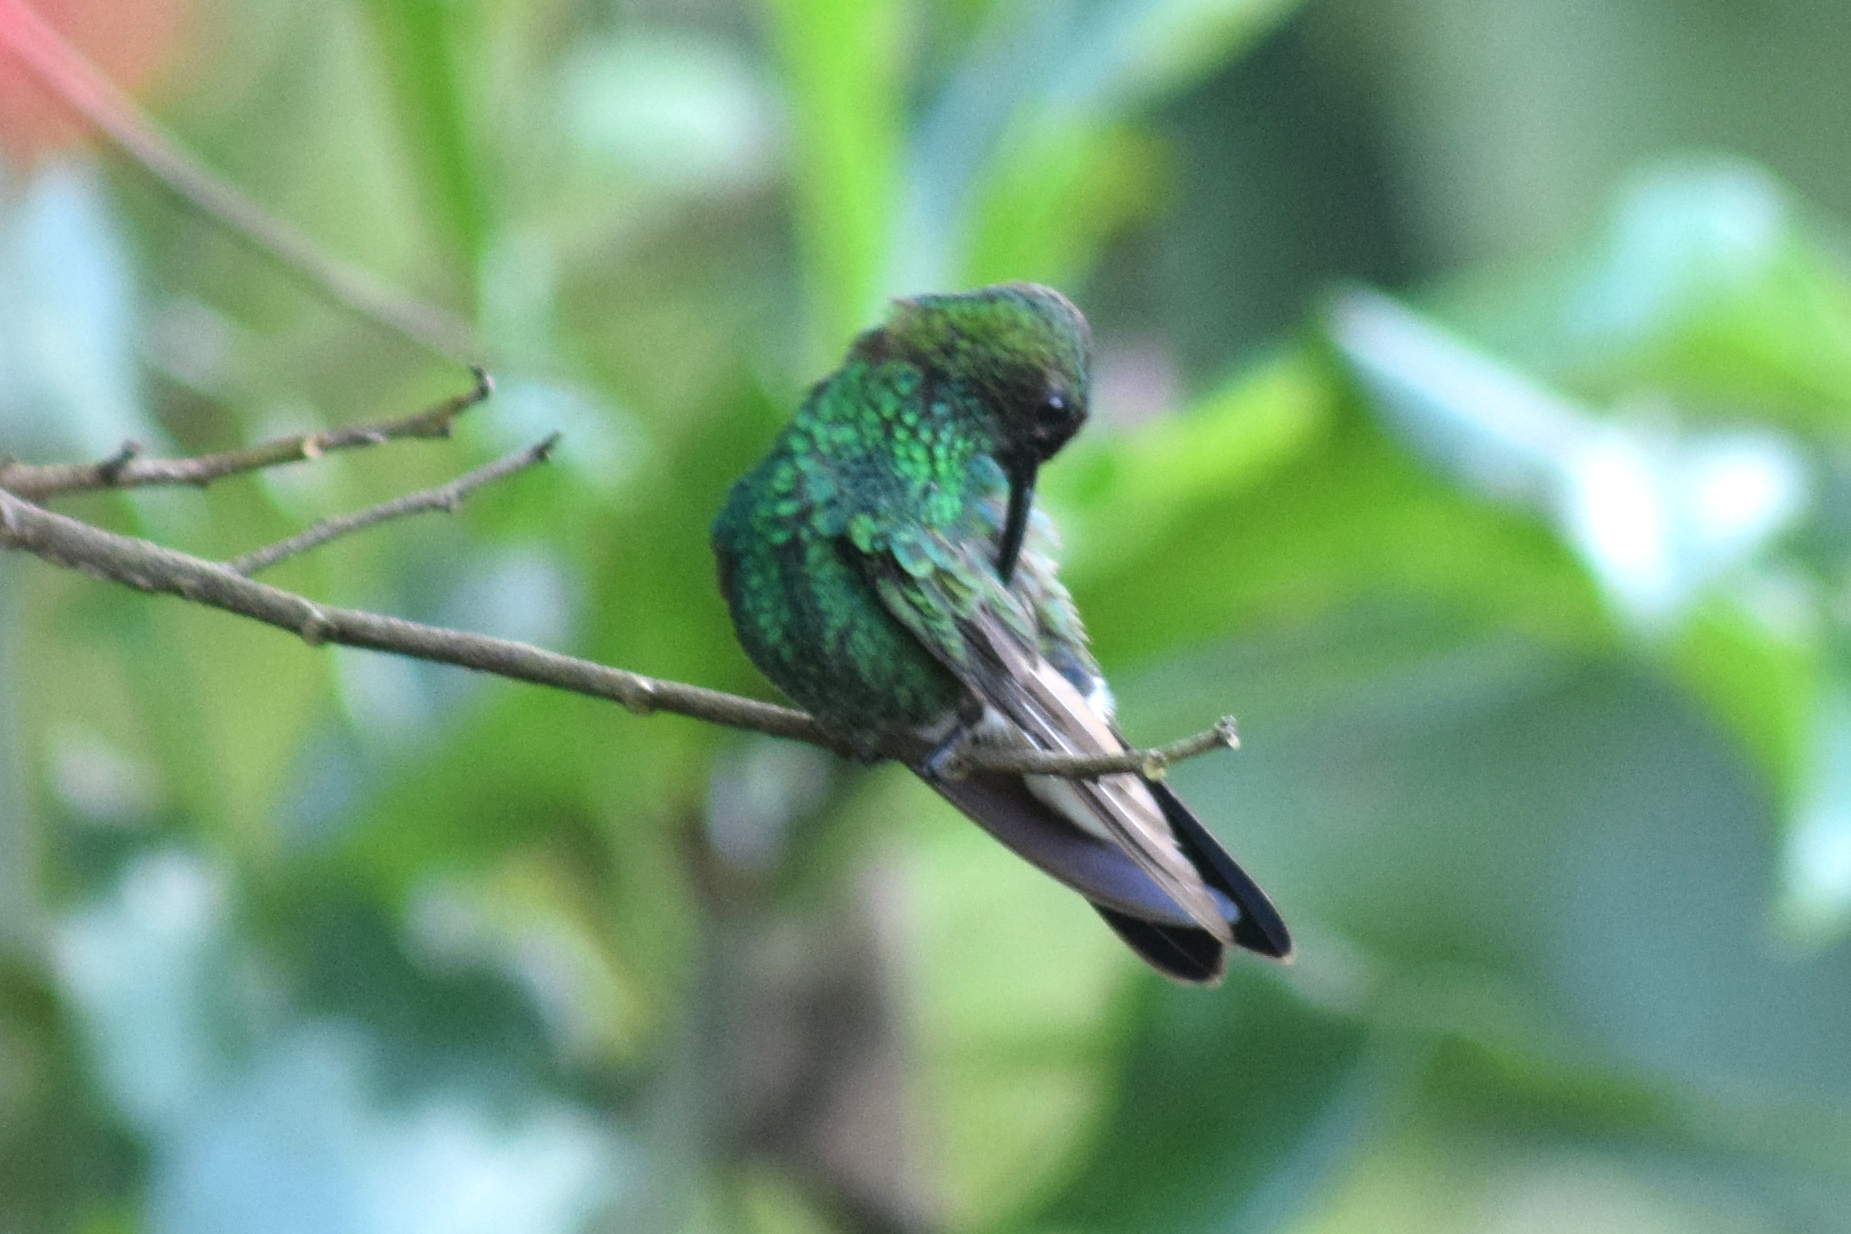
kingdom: Animalia
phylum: Chordata
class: Aves
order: Apodiformes
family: Trochilidae
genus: Chalybura
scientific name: Chalybura buffonii
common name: White-vented plumeleteer
